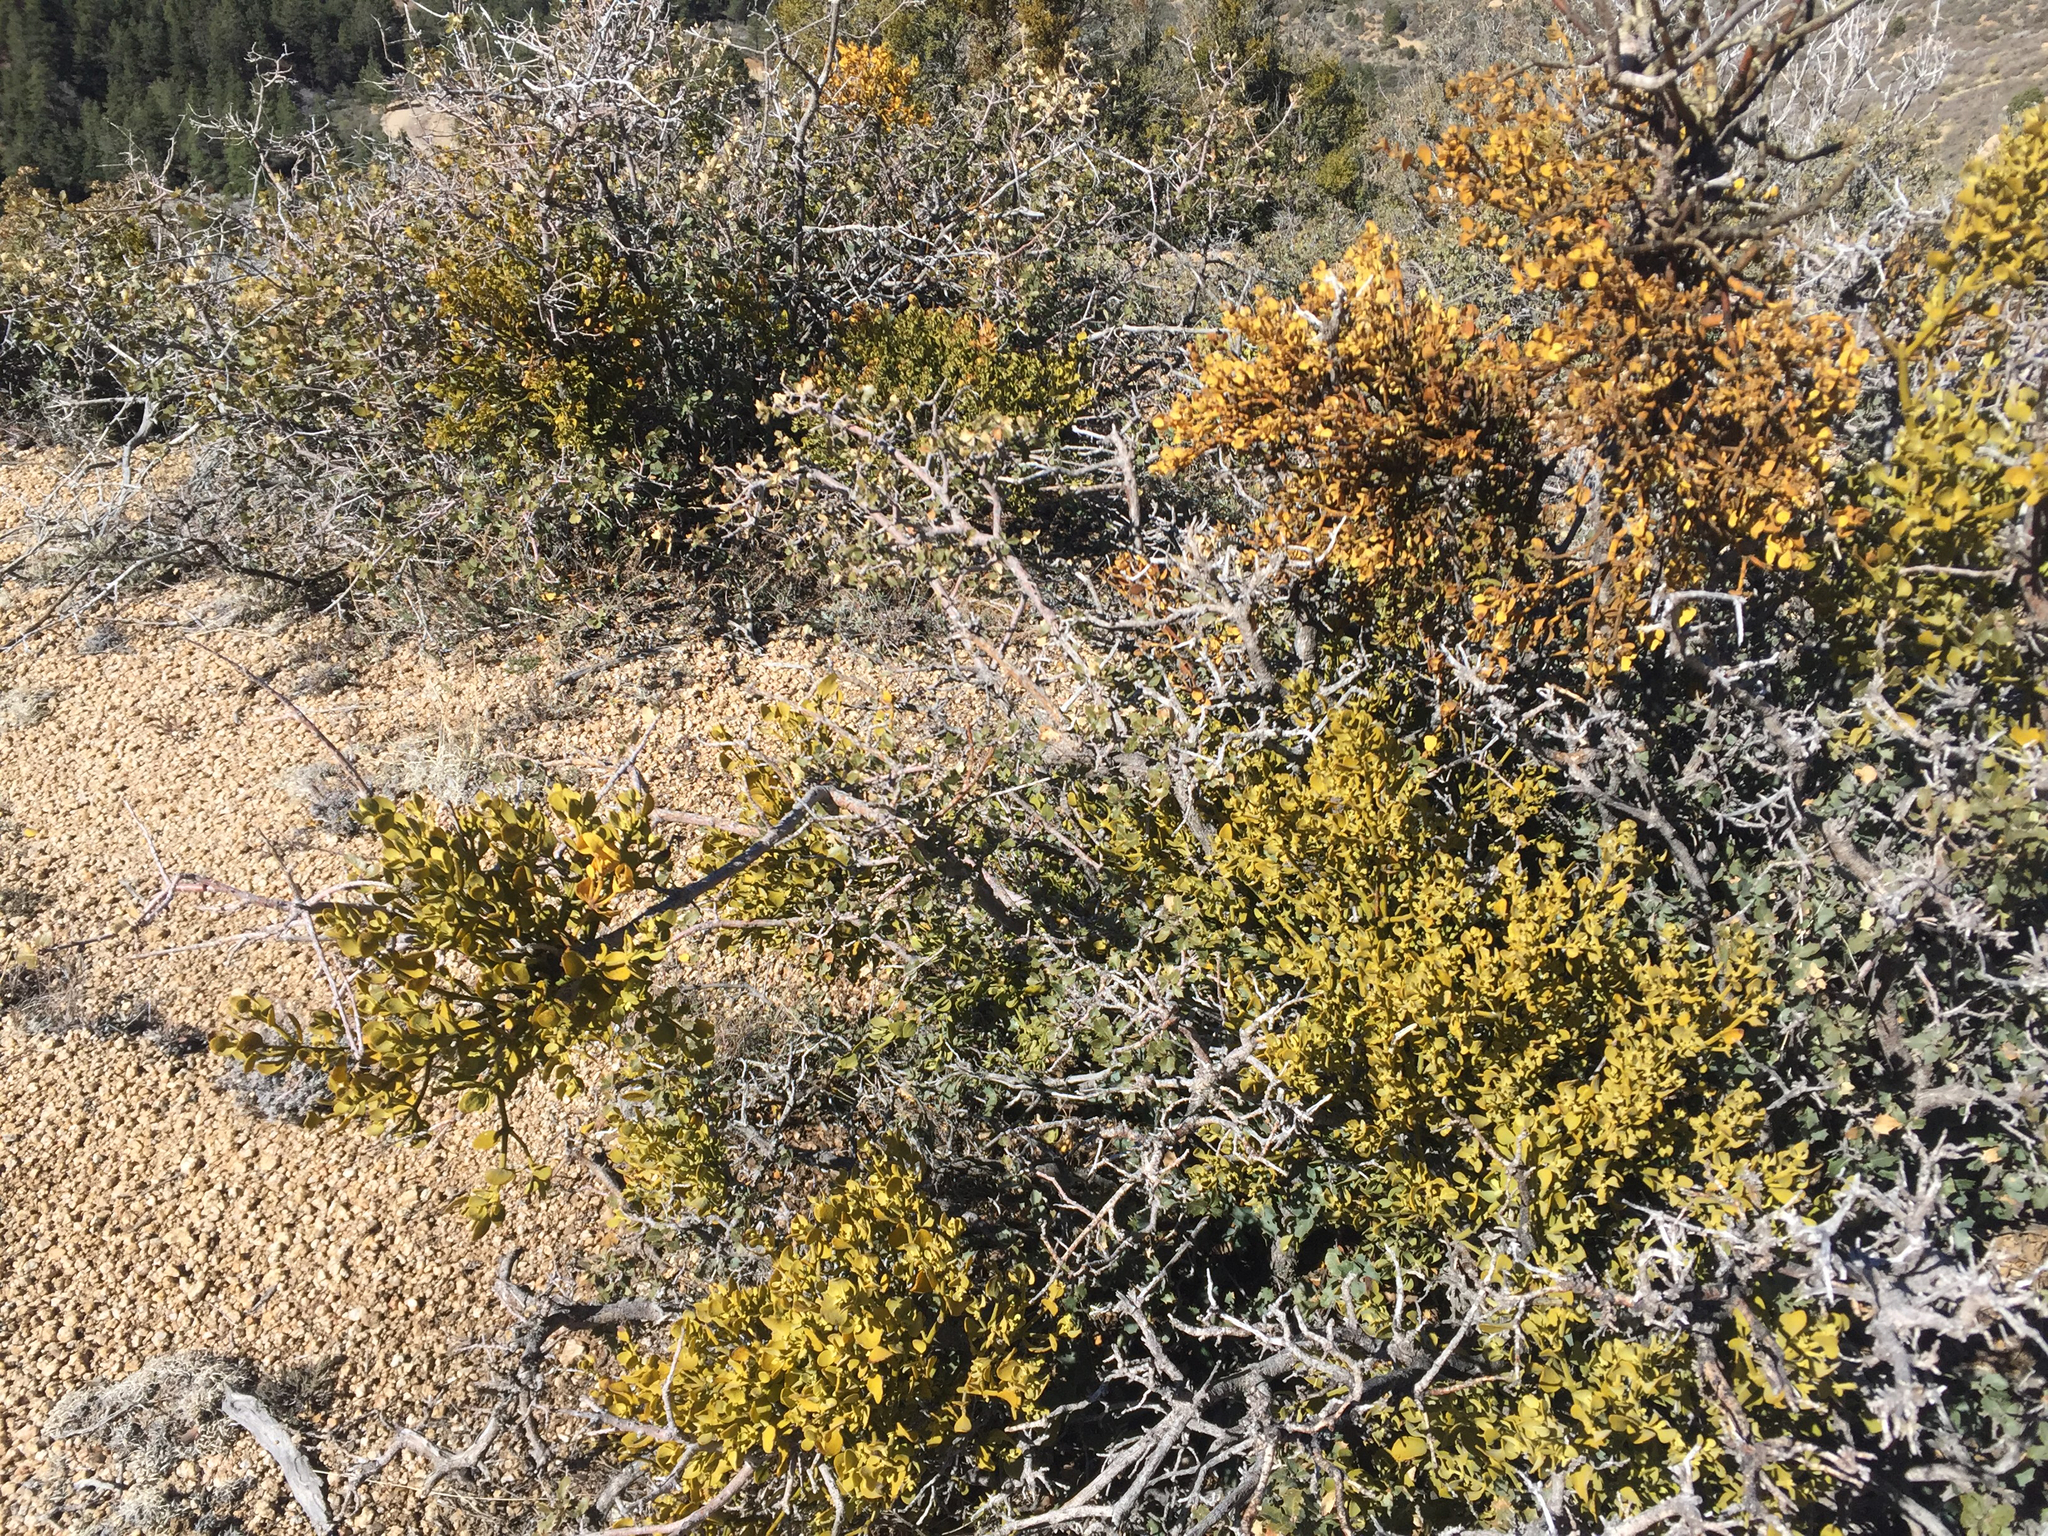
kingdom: Plantae
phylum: Tracheophyta
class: Magnoliopsida
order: Santalales
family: Viscaceae
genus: Phoradendron
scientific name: Phoradendron coryae
